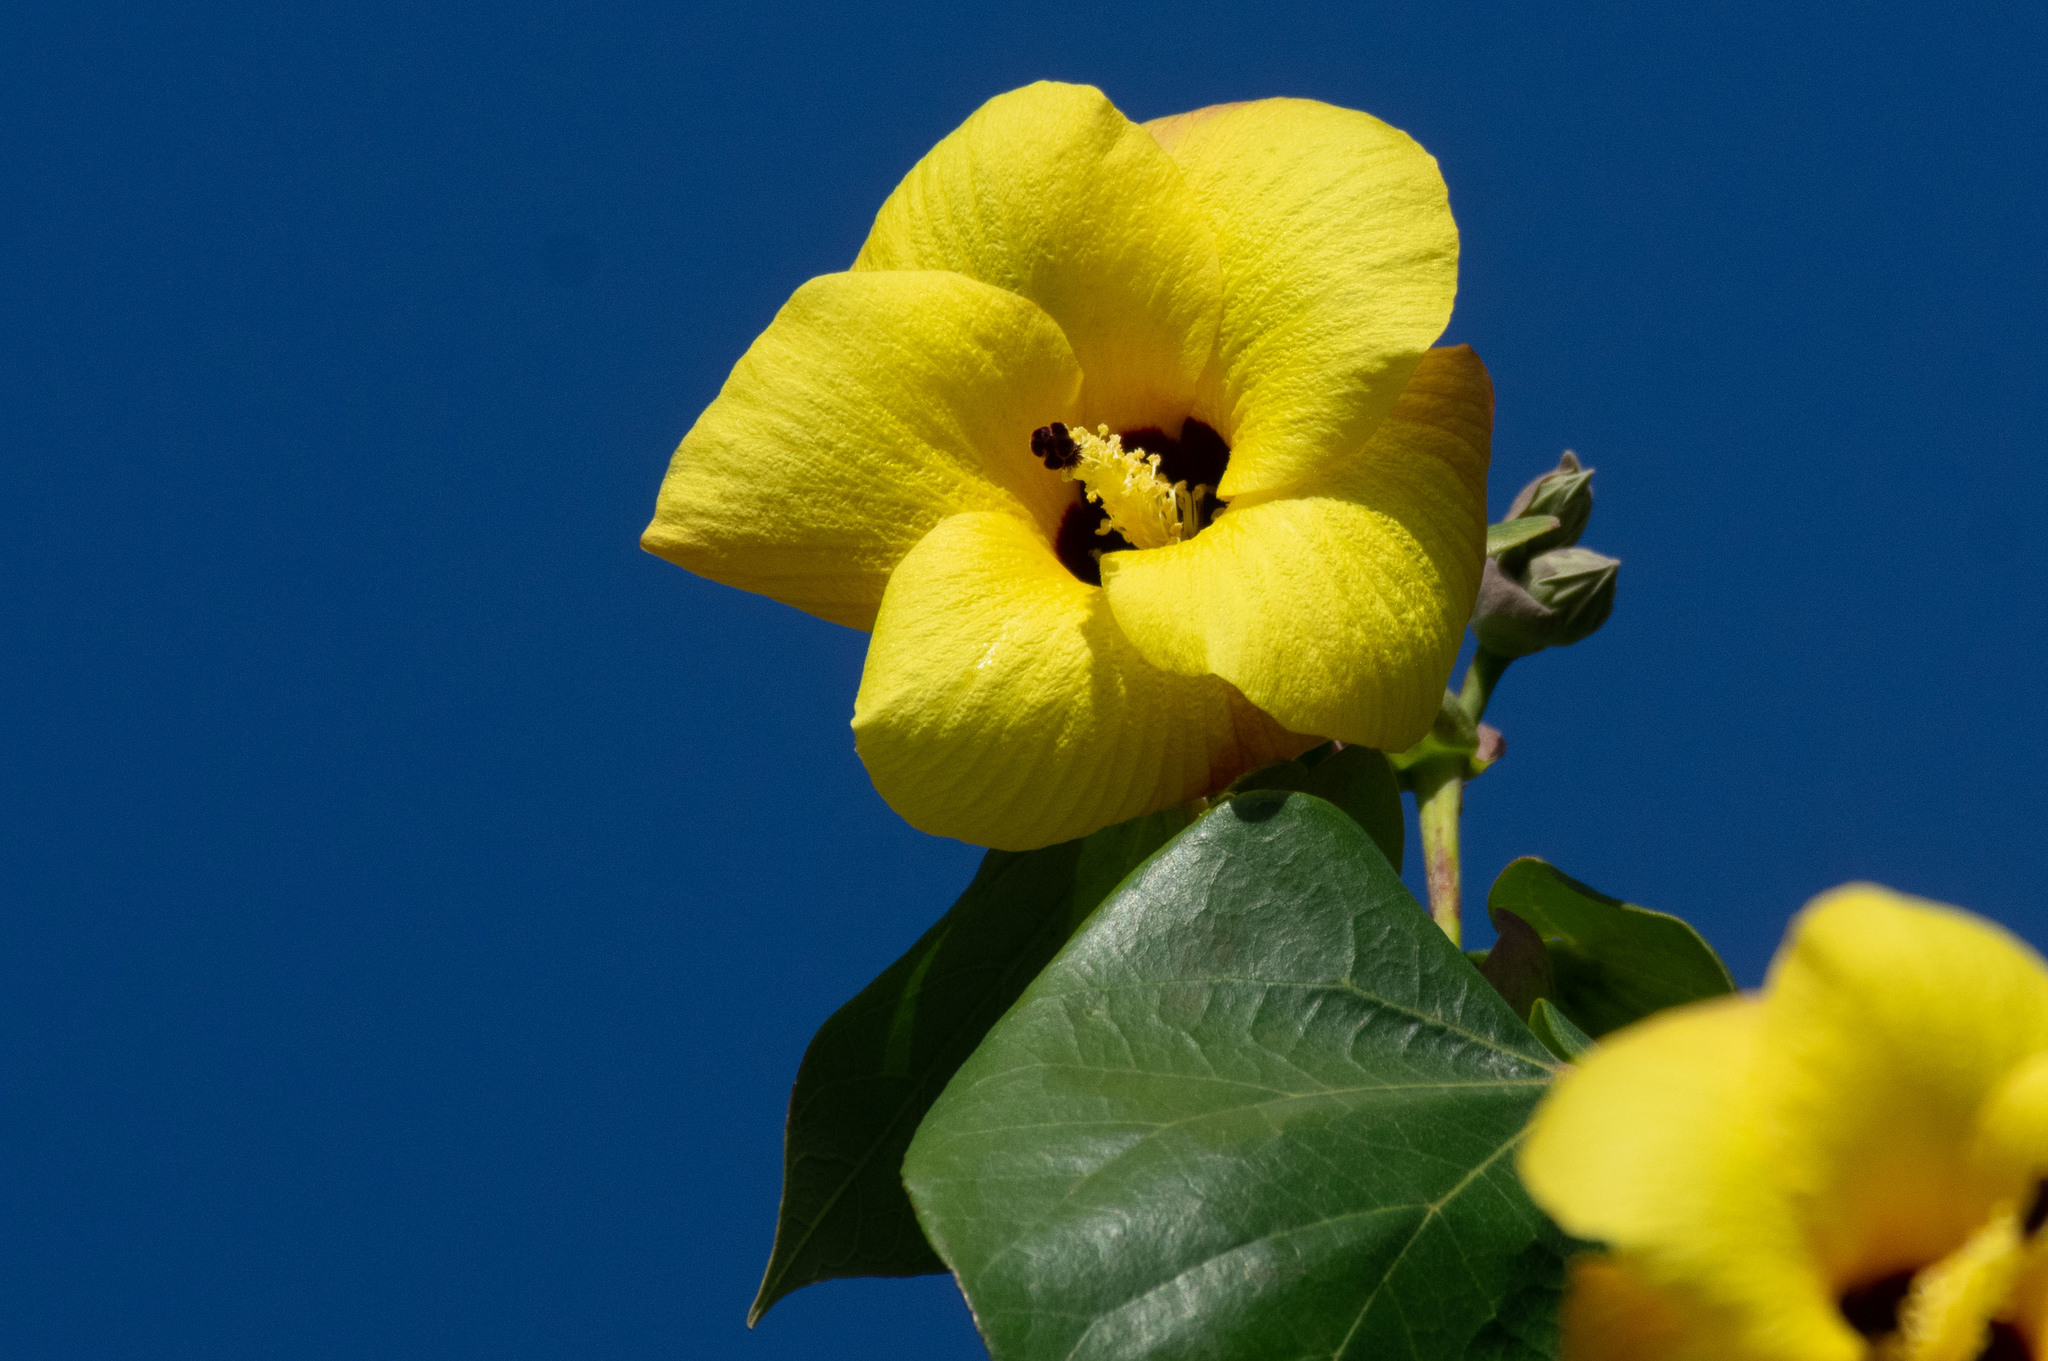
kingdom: Plantae
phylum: Tracheophyta
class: Magnoliopsida
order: Malvales
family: Malvaceae
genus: Talipariti
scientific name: Talipariti tiliaceum
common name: Sea hibiscus
